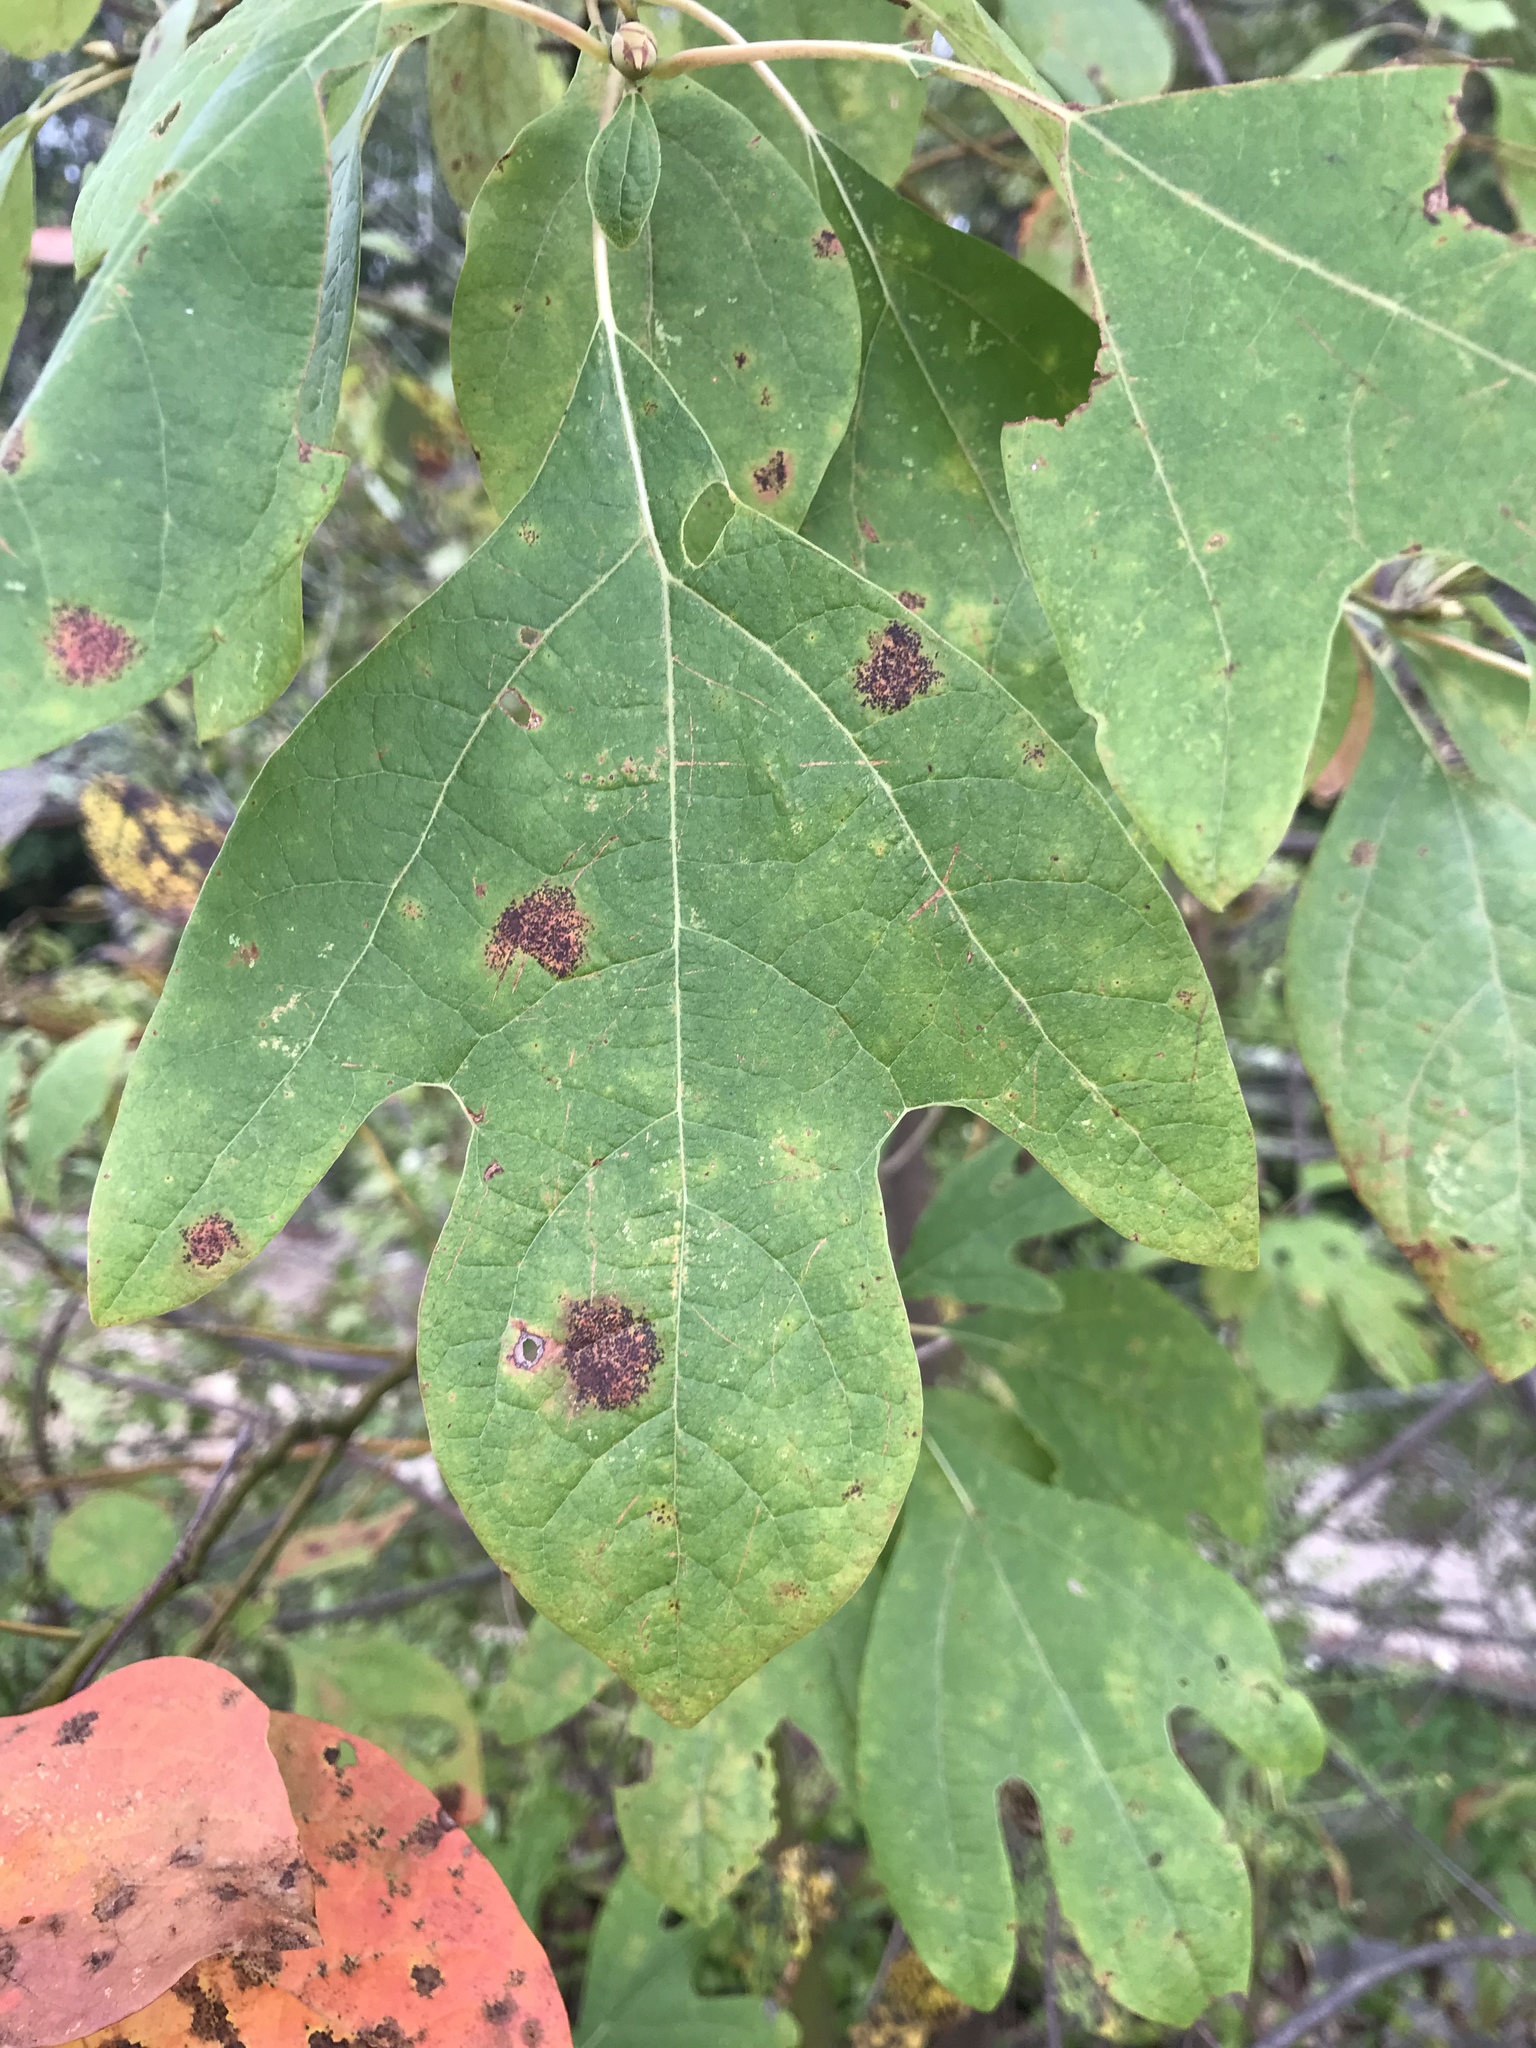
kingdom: Plantae
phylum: Tracheophyta
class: Magnoliopsida
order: Laurales
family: Lauraceae
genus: Sassafras
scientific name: Sassafras albidum
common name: Sassafras
